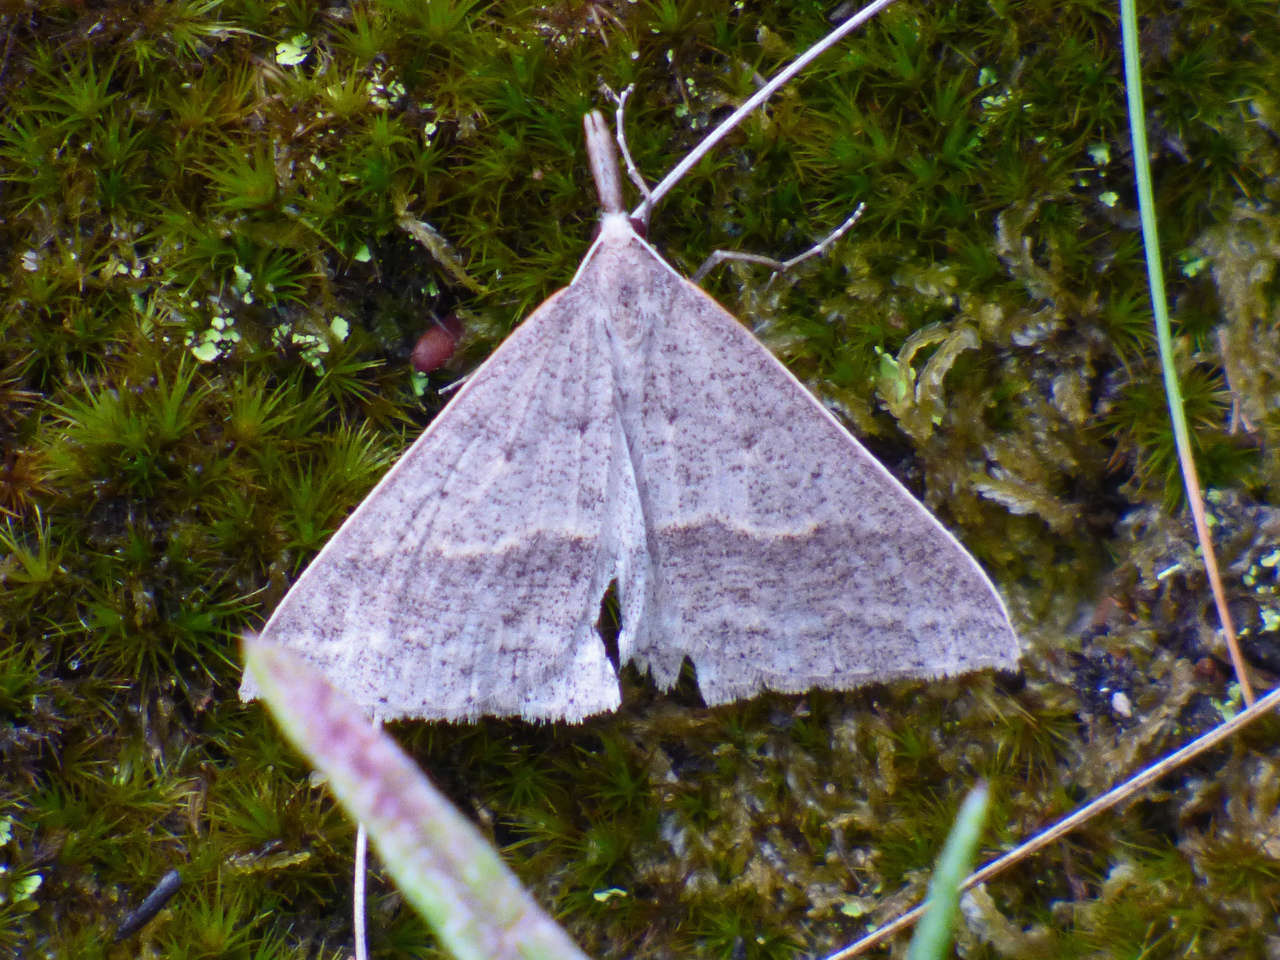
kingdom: Animalia
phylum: Arthropoda
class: Insecta
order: Lepidoptera
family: Geometridae
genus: Epidesmia
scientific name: Epidesmia hypenaria
